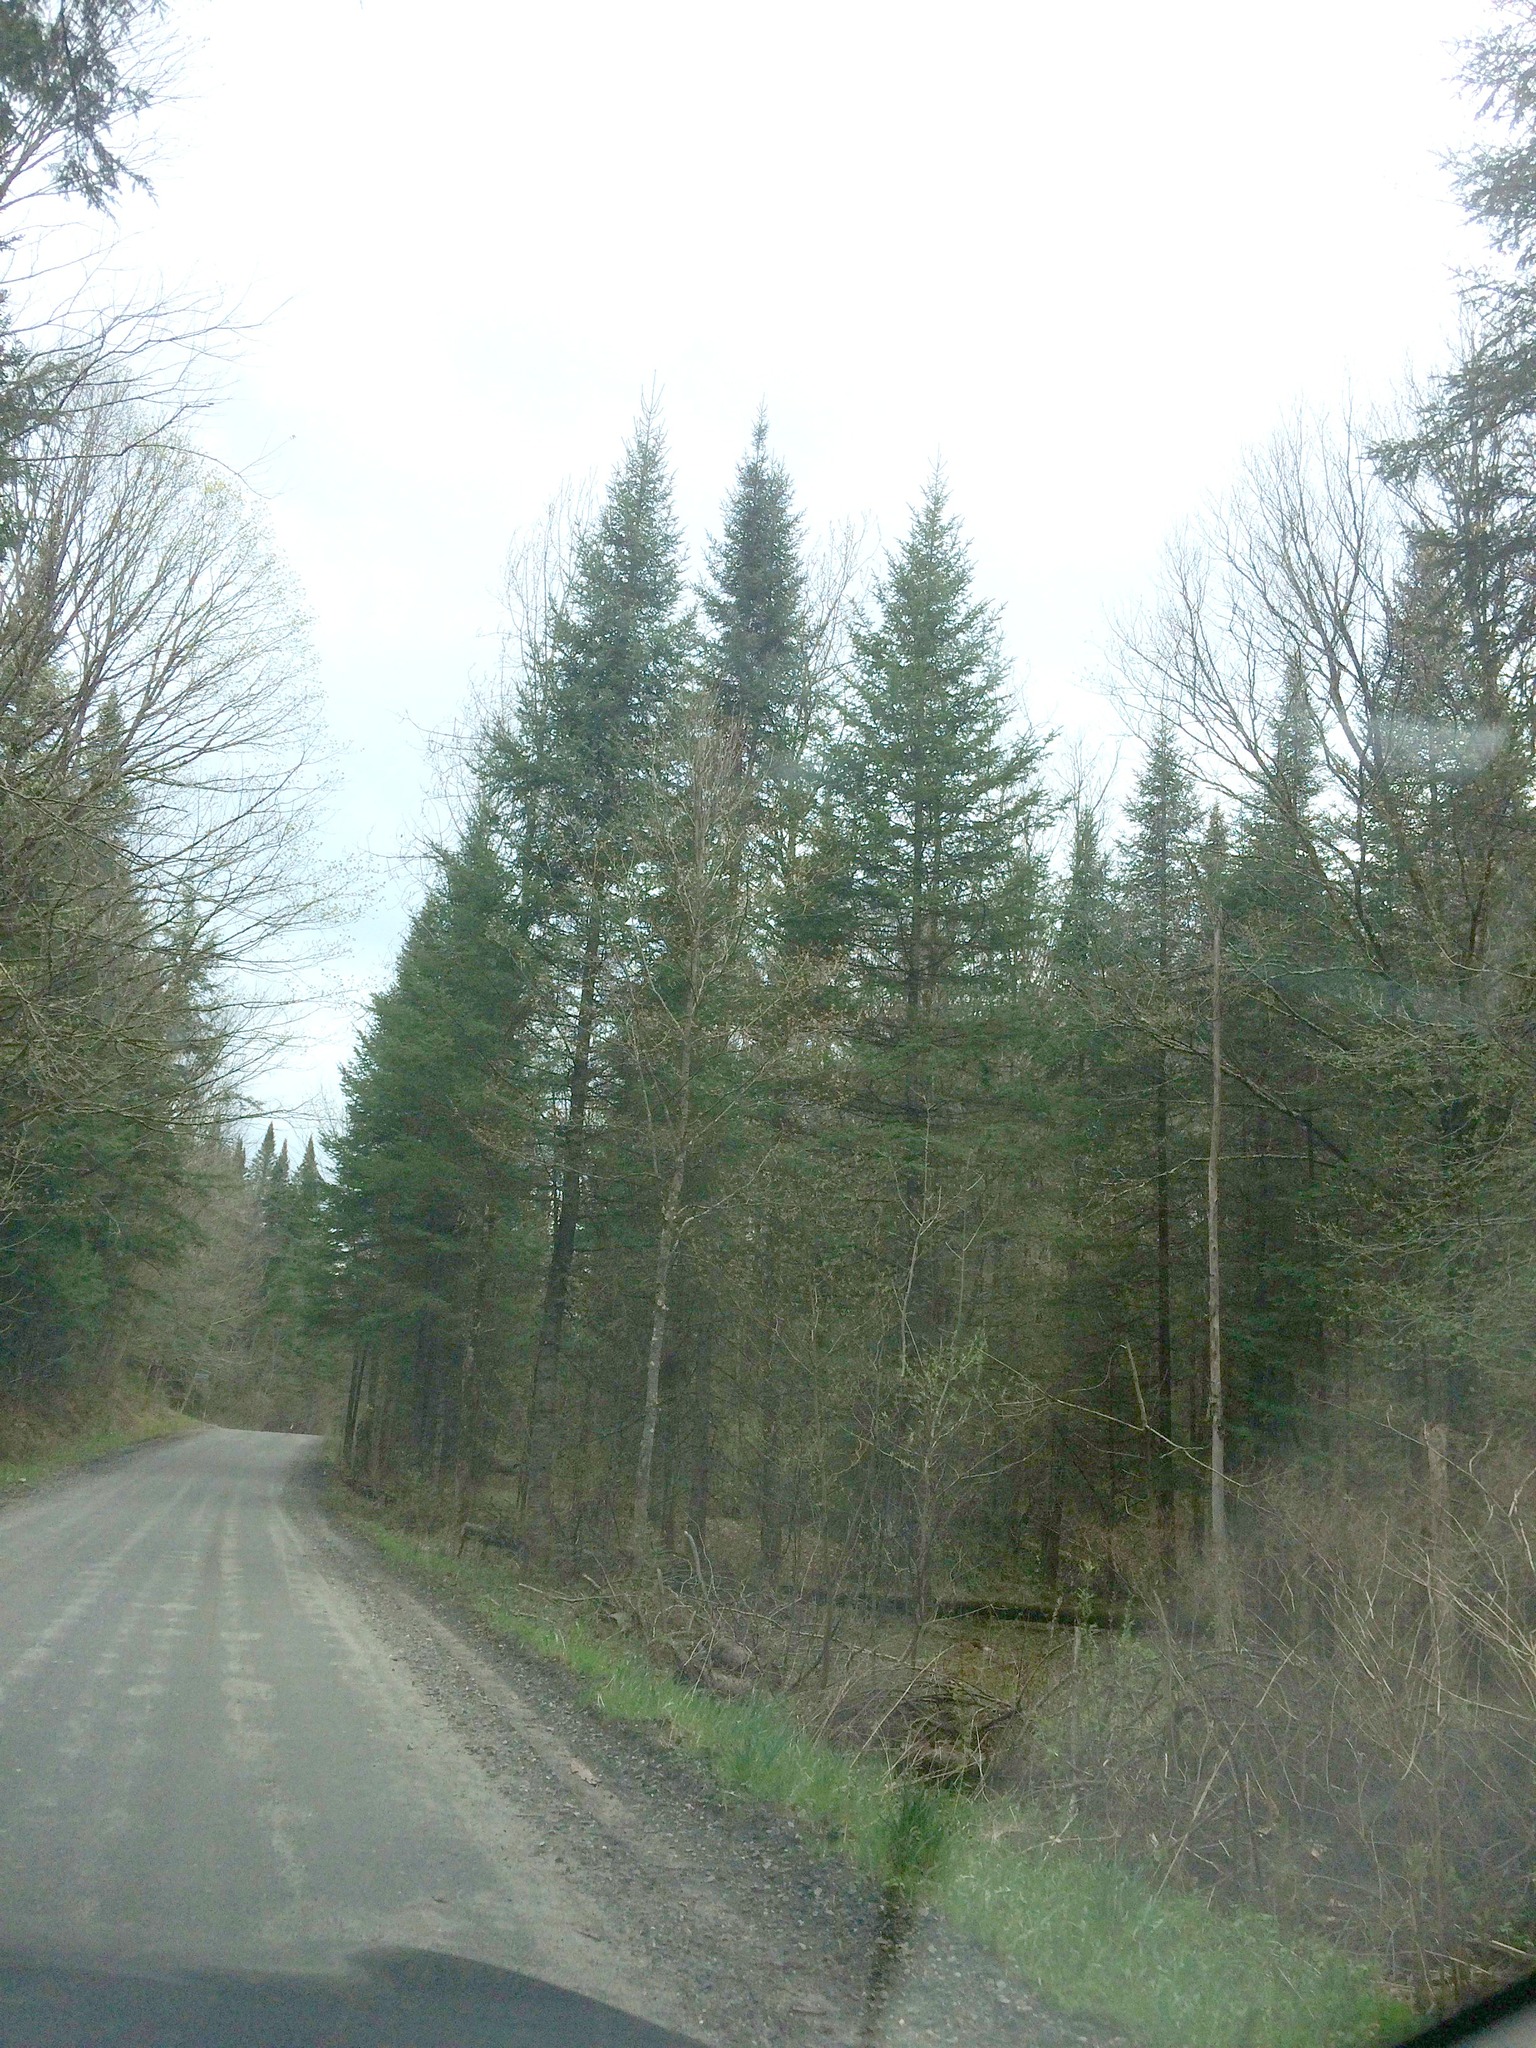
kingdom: Plantae
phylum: Tracheophyta
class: Pinopsida
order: Pinales
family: Pinaceae
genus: Abies
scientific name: Abies balsamea
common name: Balsam fir
